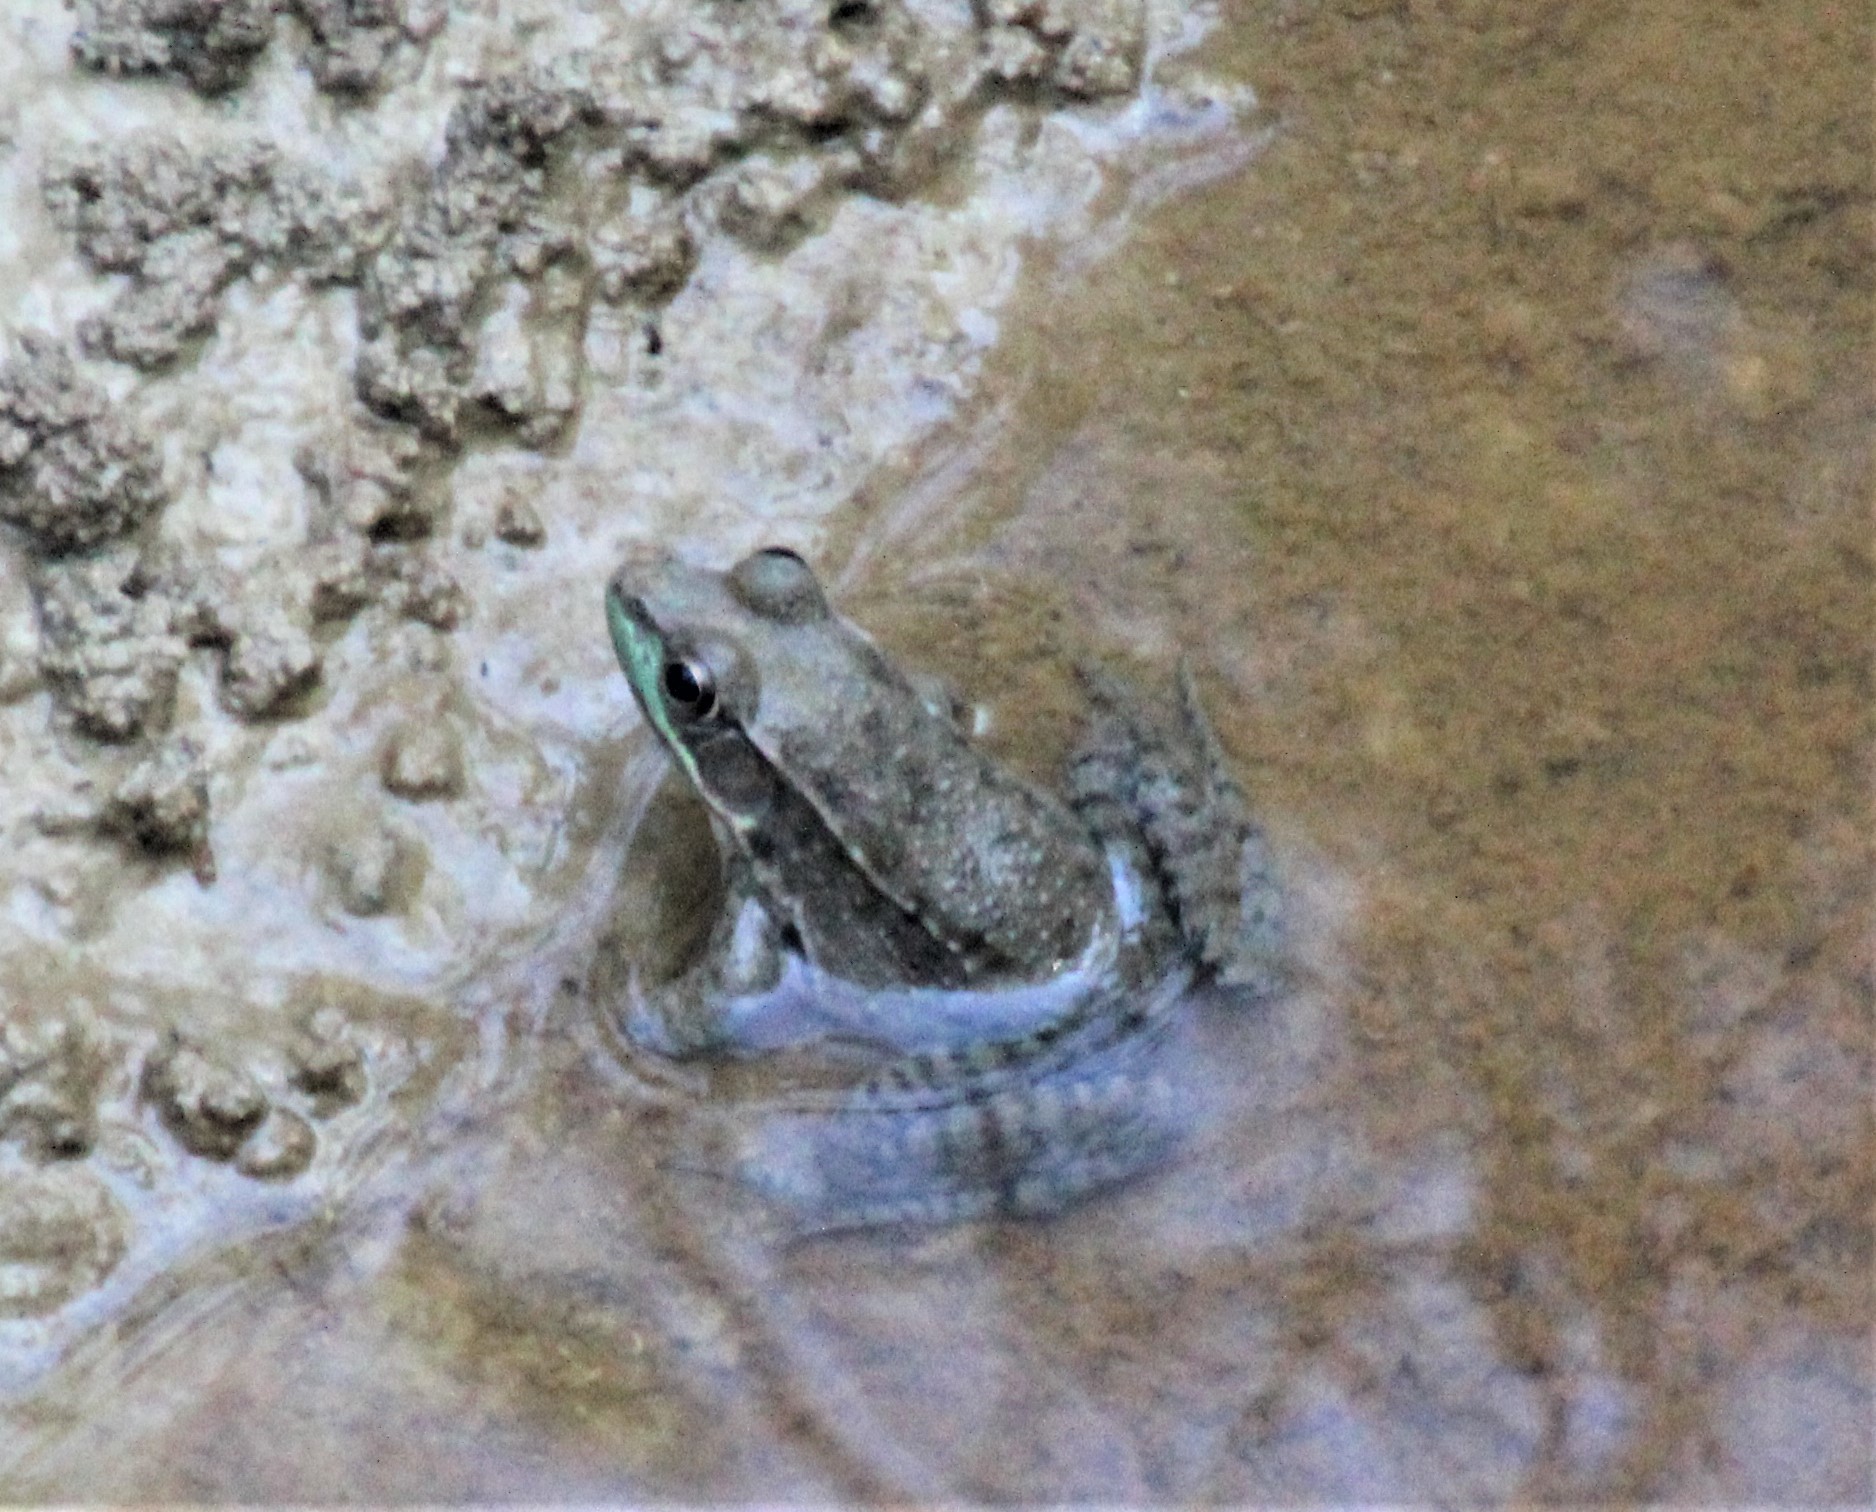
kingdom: Animalia
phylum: Chordata
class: Amphibia
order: Anura
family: Ranidae
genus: Lithobates
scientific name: Lithobates clamitans
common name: Green frog
